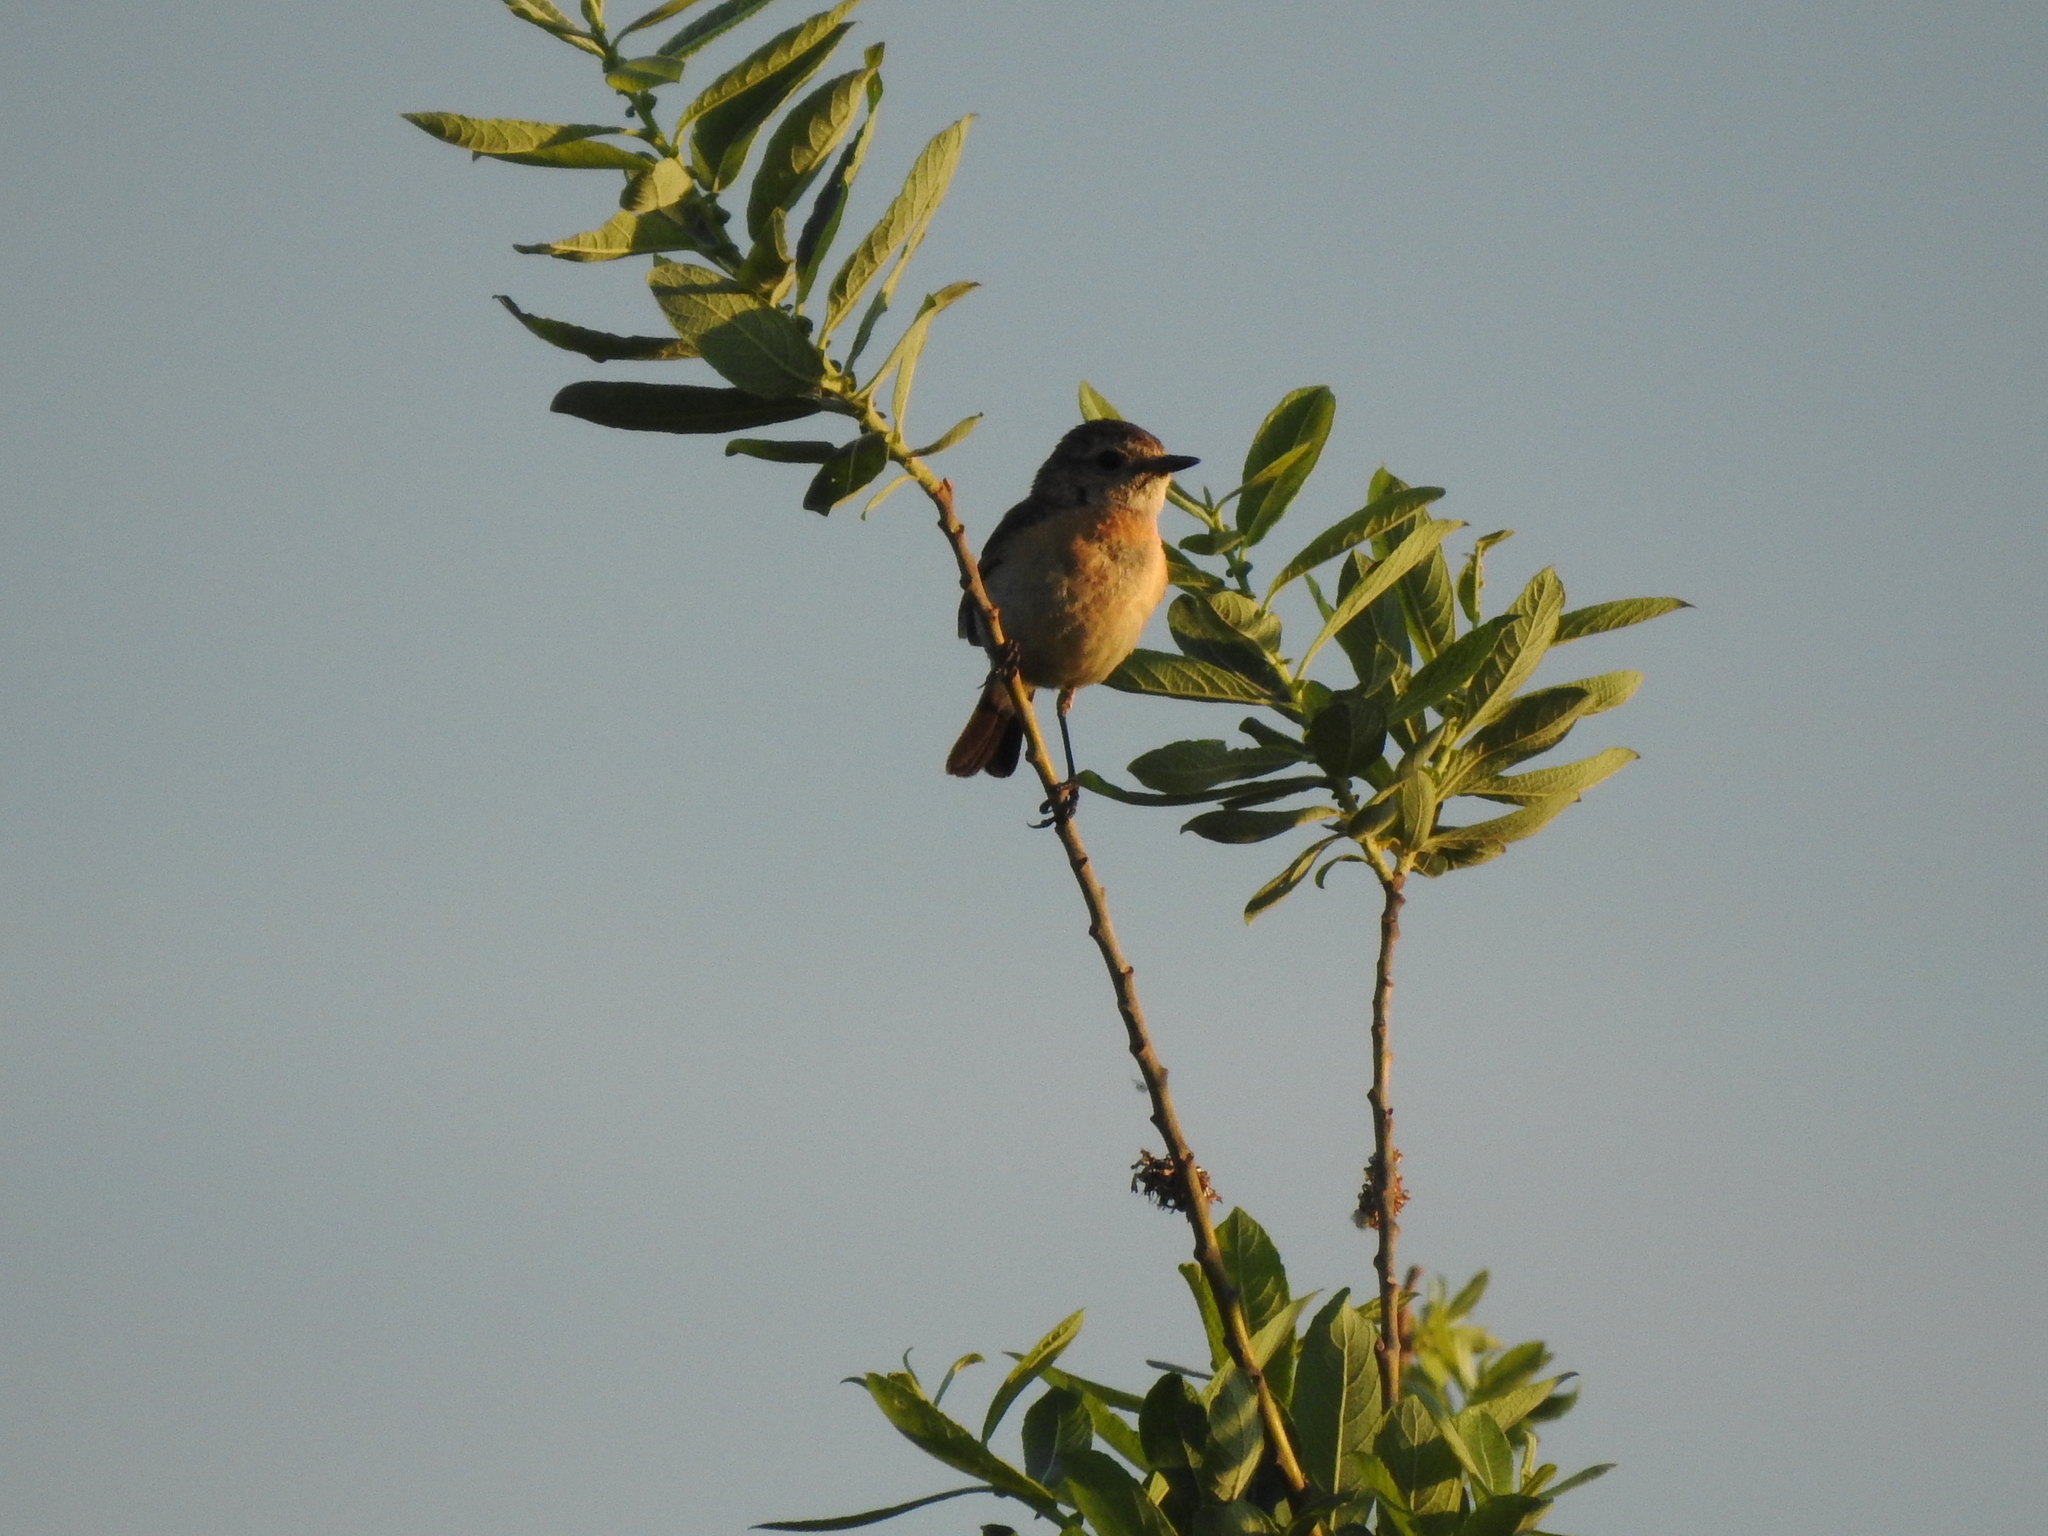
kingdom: Animalia
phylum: Chordata
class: Aves
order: Passeriformes
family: Muscicapidae
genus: Saxicola
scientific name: Saxicola maurus
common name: Siberian stonechat
